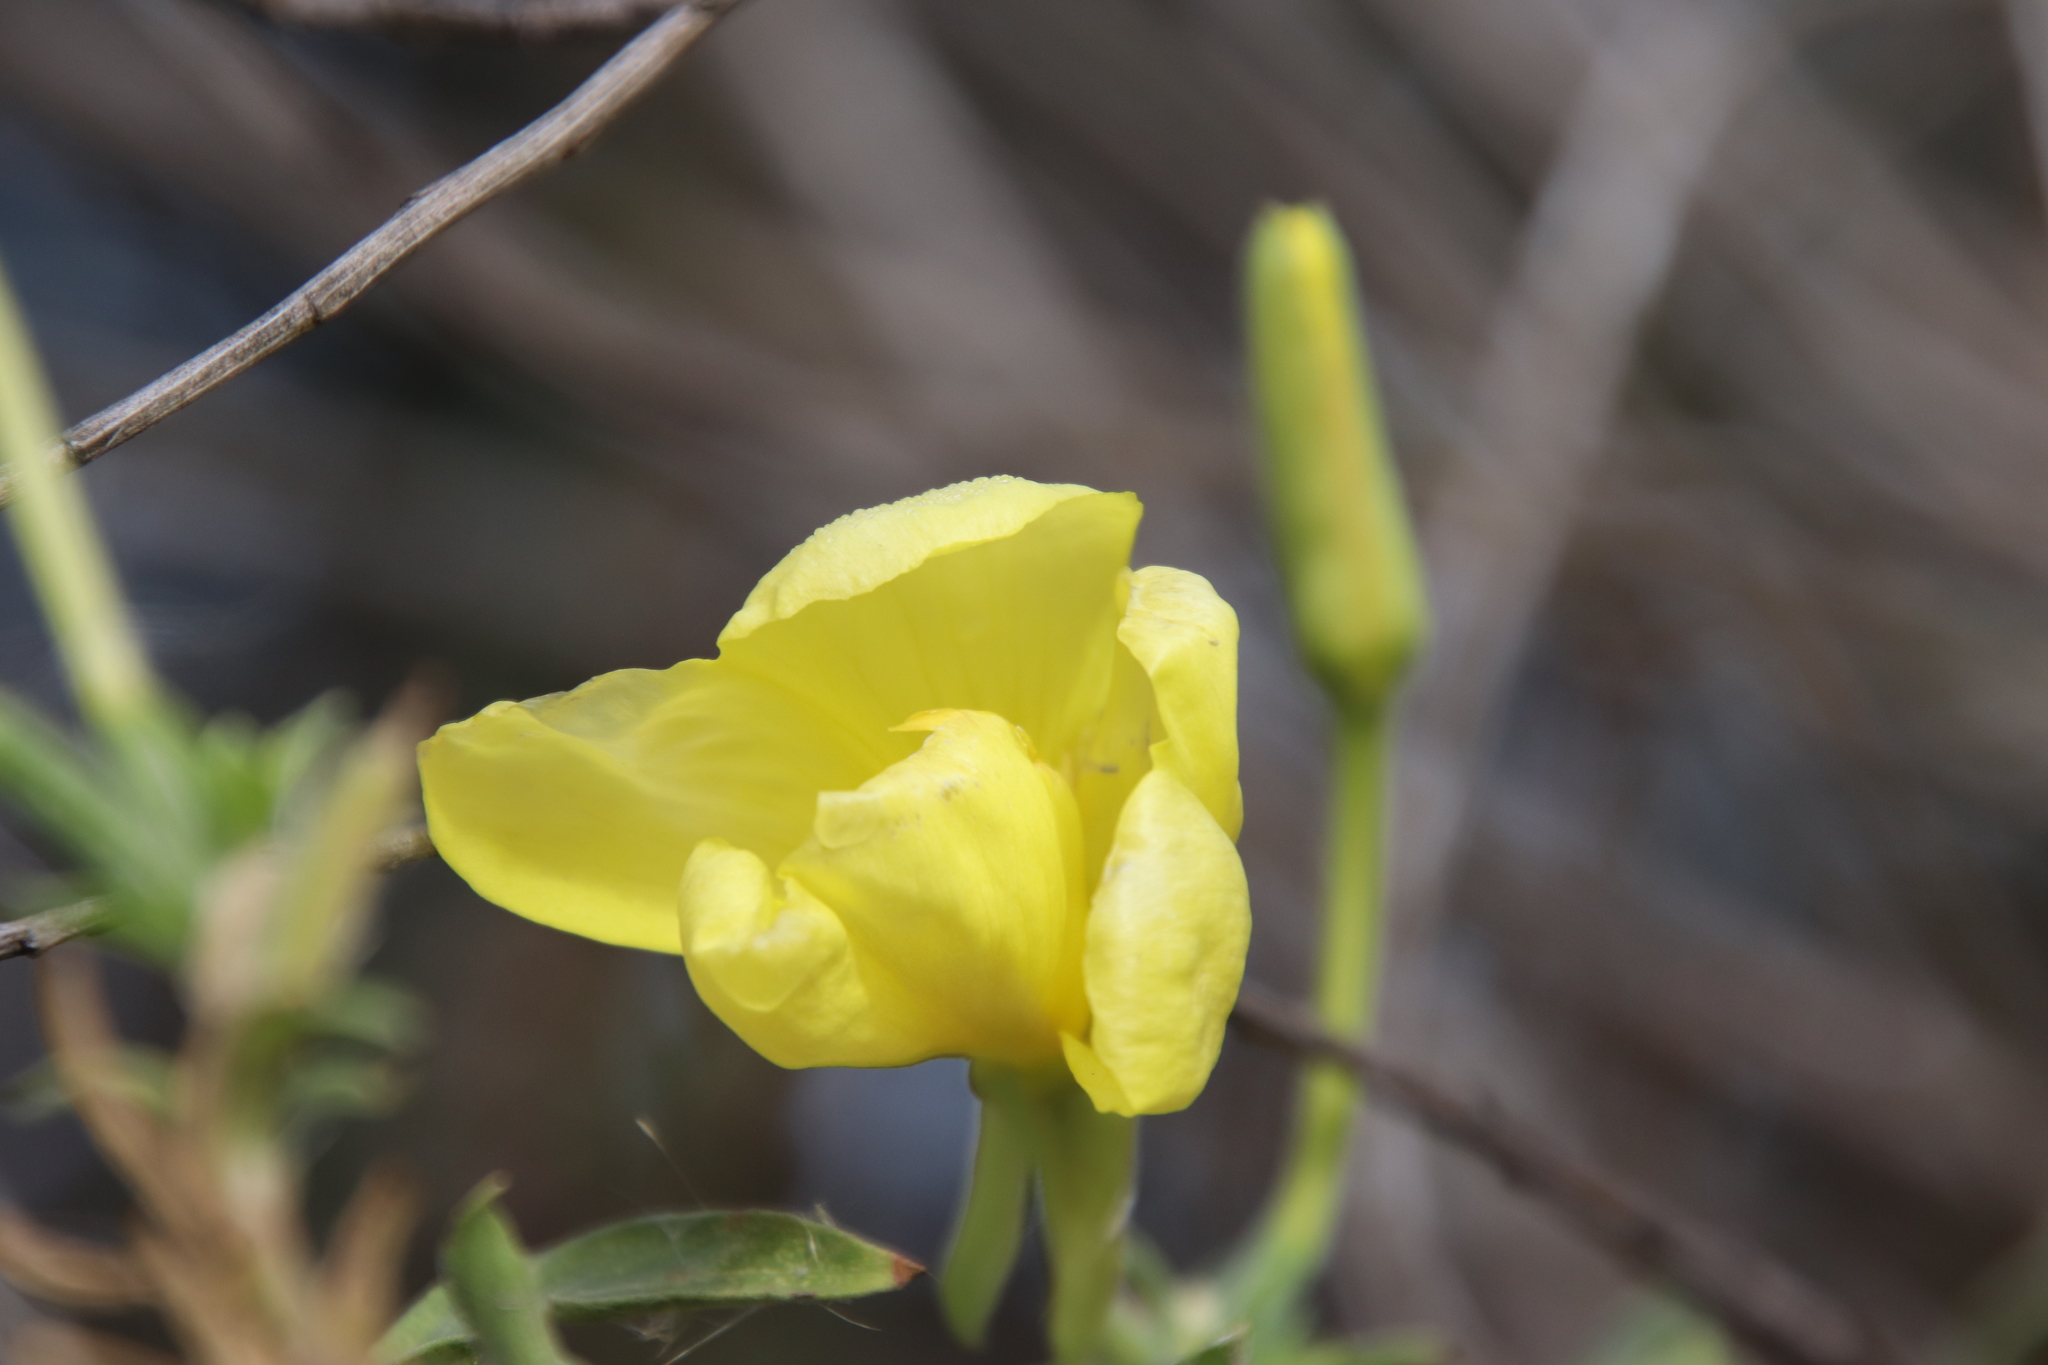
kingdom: Plantae
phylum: Tracheophyta
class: Magnoliopsida
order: Myrtales
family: Onagraceae
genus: Oenothera
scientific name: Oenothera elata
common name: Hooker's evening-primrose
